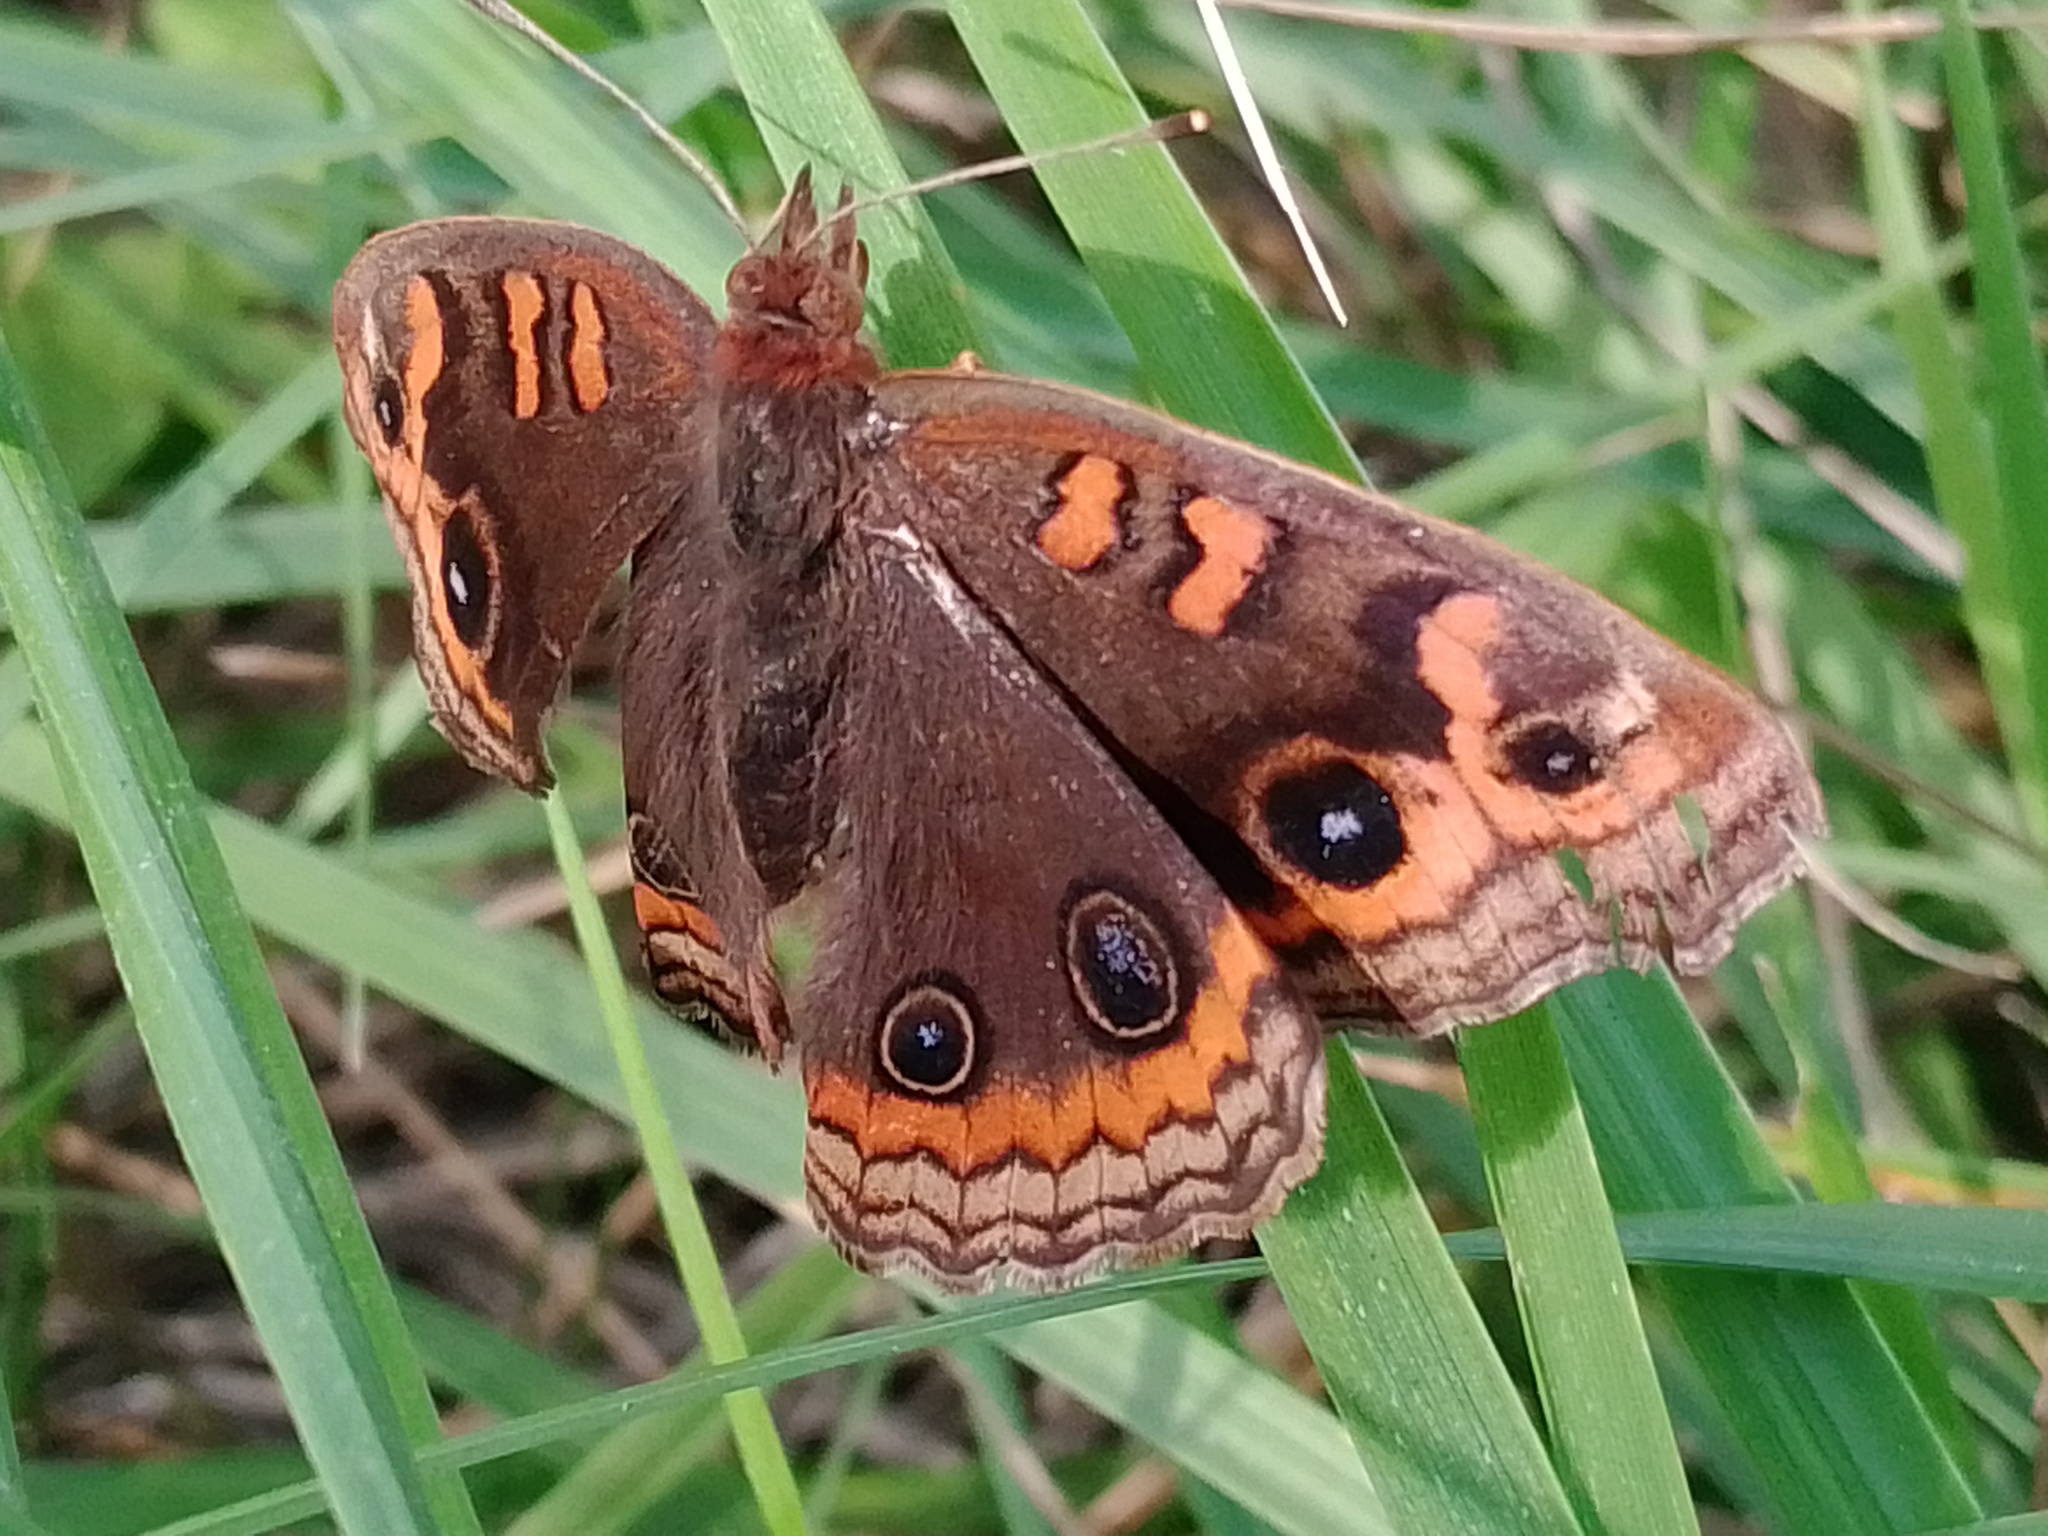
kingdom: Animalia
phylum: Arthropoda
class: Insecta
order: Lepidoptera
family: Nymphalidae
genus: Junonia
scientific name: Junonia lavinia
